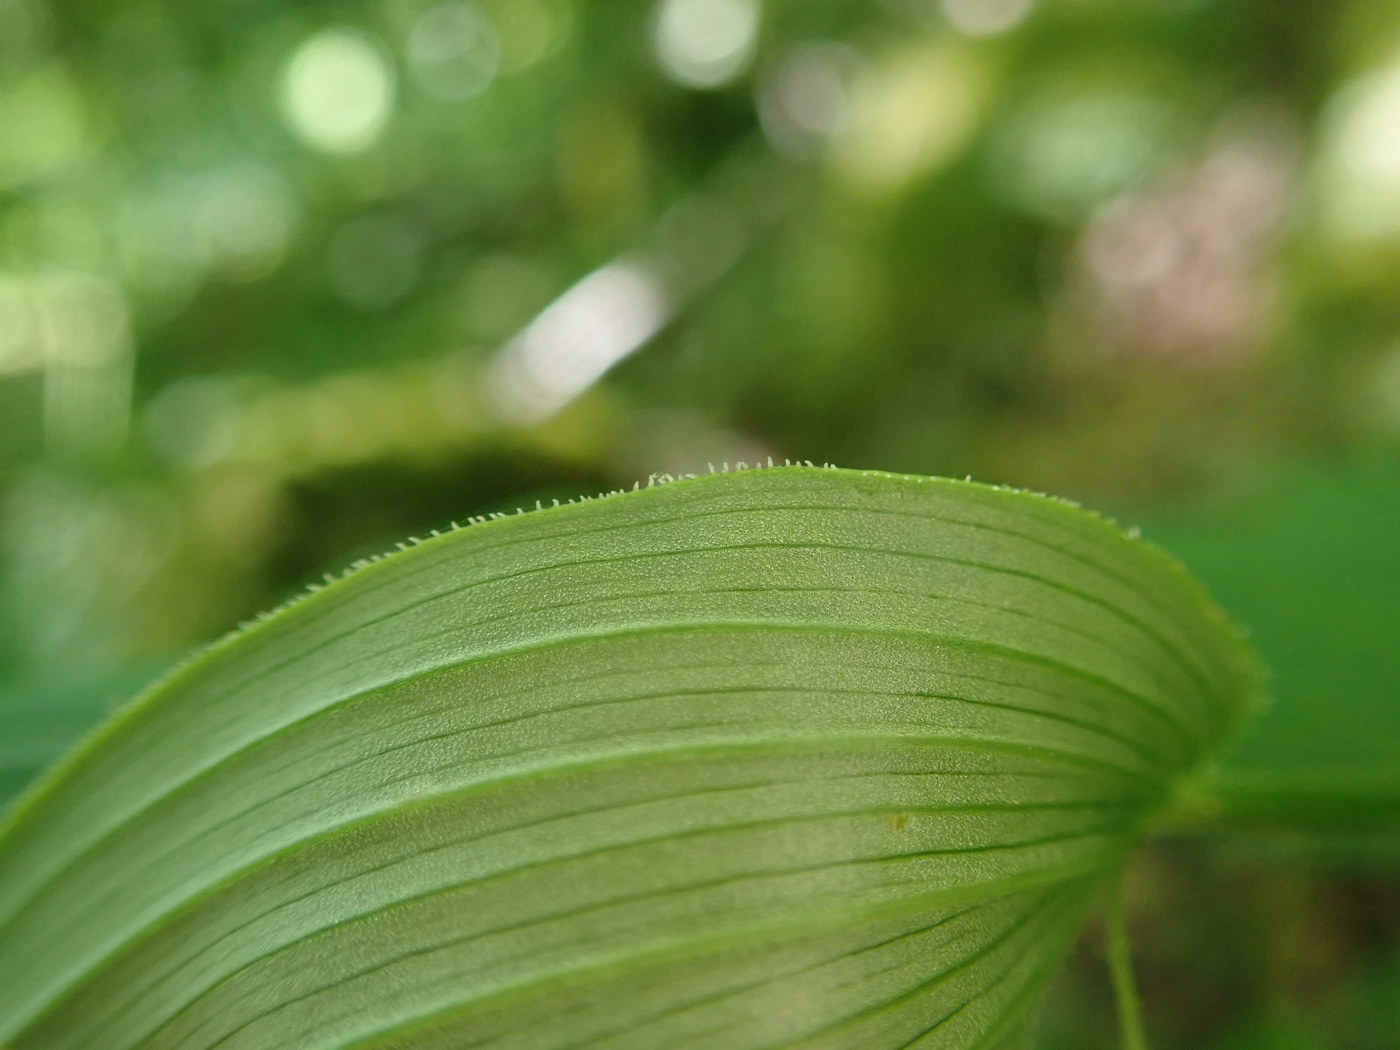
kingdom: Plantae
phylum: Tracheophyta
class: Liliopsida
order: Liliales
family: Liliaceae
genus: Streptopus
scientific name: Streptopus lanceolatus
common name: Rose mandarin
